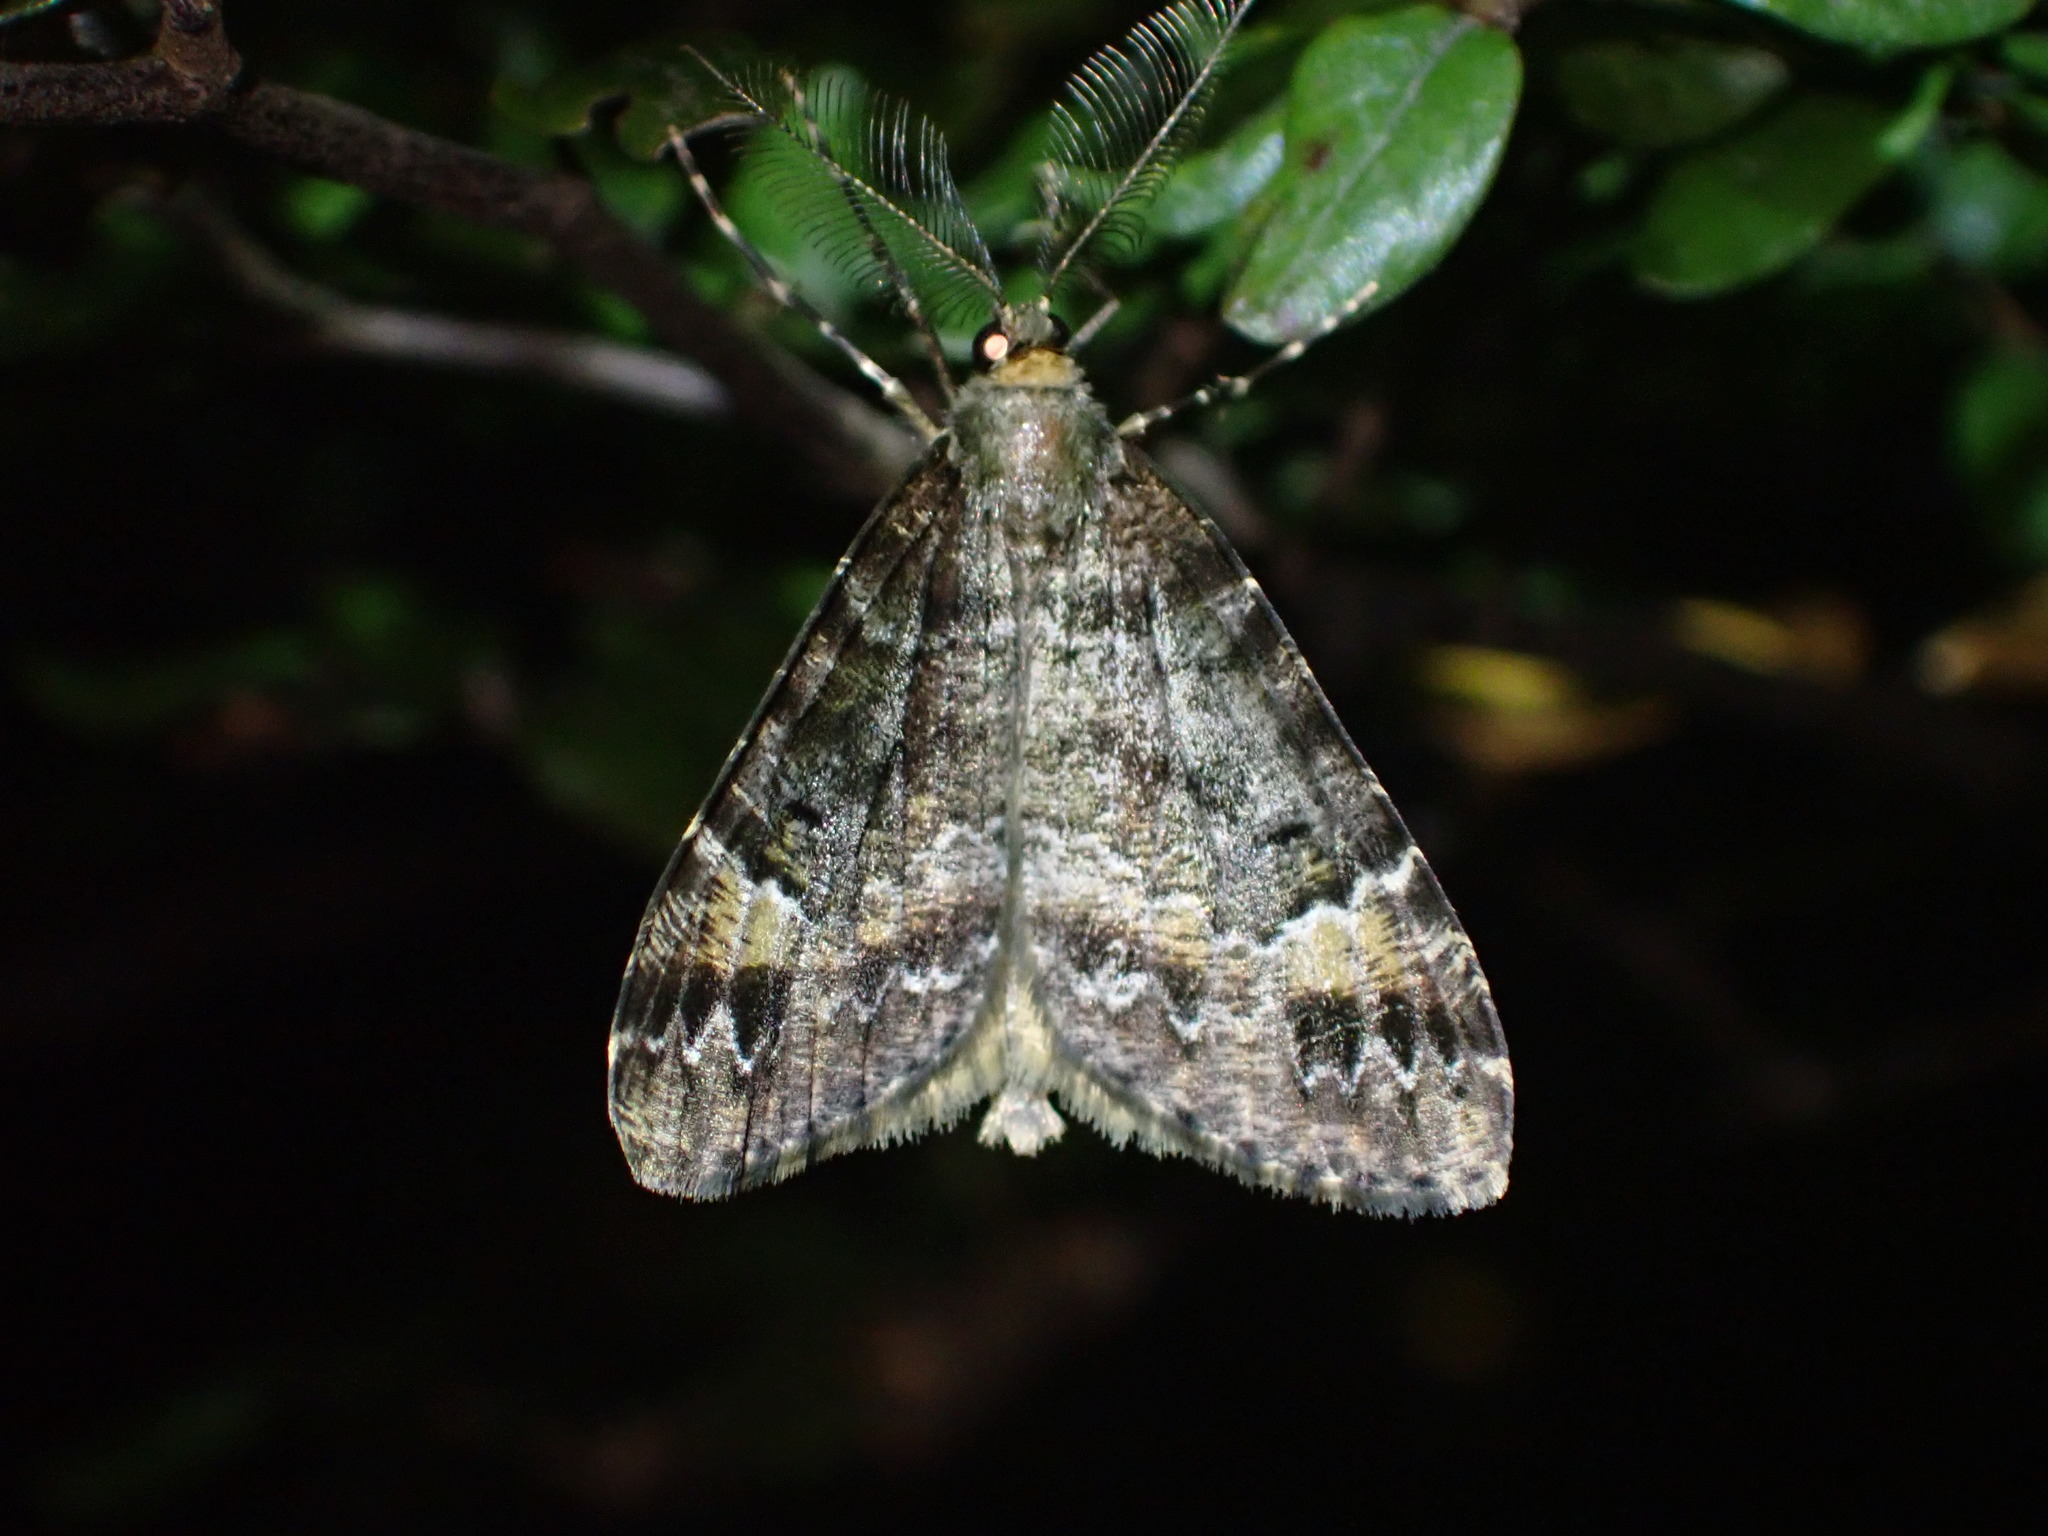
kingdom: Animalia
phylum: Arthropoda
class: Insecta
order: Lepidoptera
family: Geometridae
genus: Pseudocoremia
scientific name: Pseudocoremia productata
